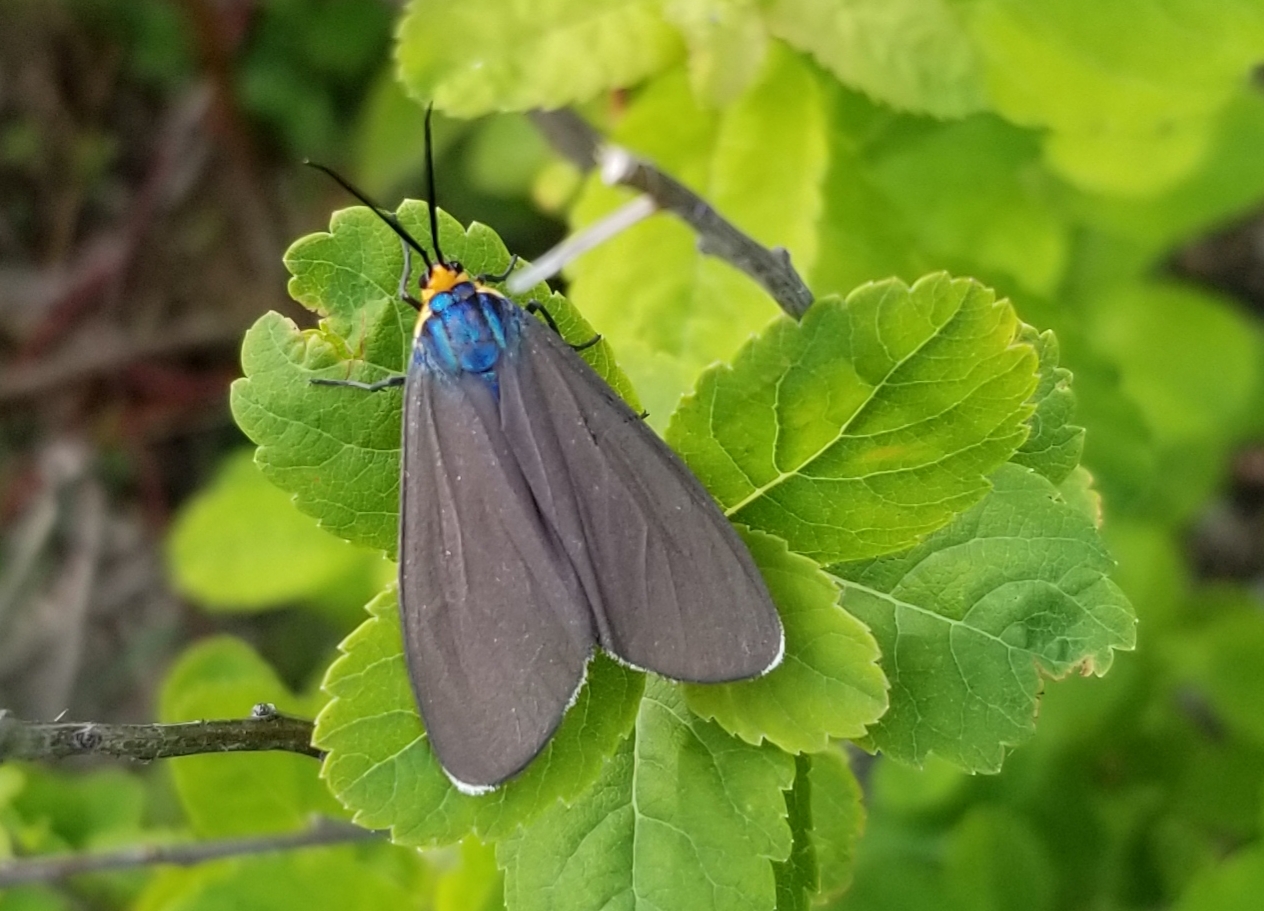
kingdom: Animalia
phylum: Arthropoda
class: Insecta
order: Lepidoptera
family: Erebidae
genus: Ctenucha
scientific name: Ctenucha virginica
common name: Virginia ctenucha moth
